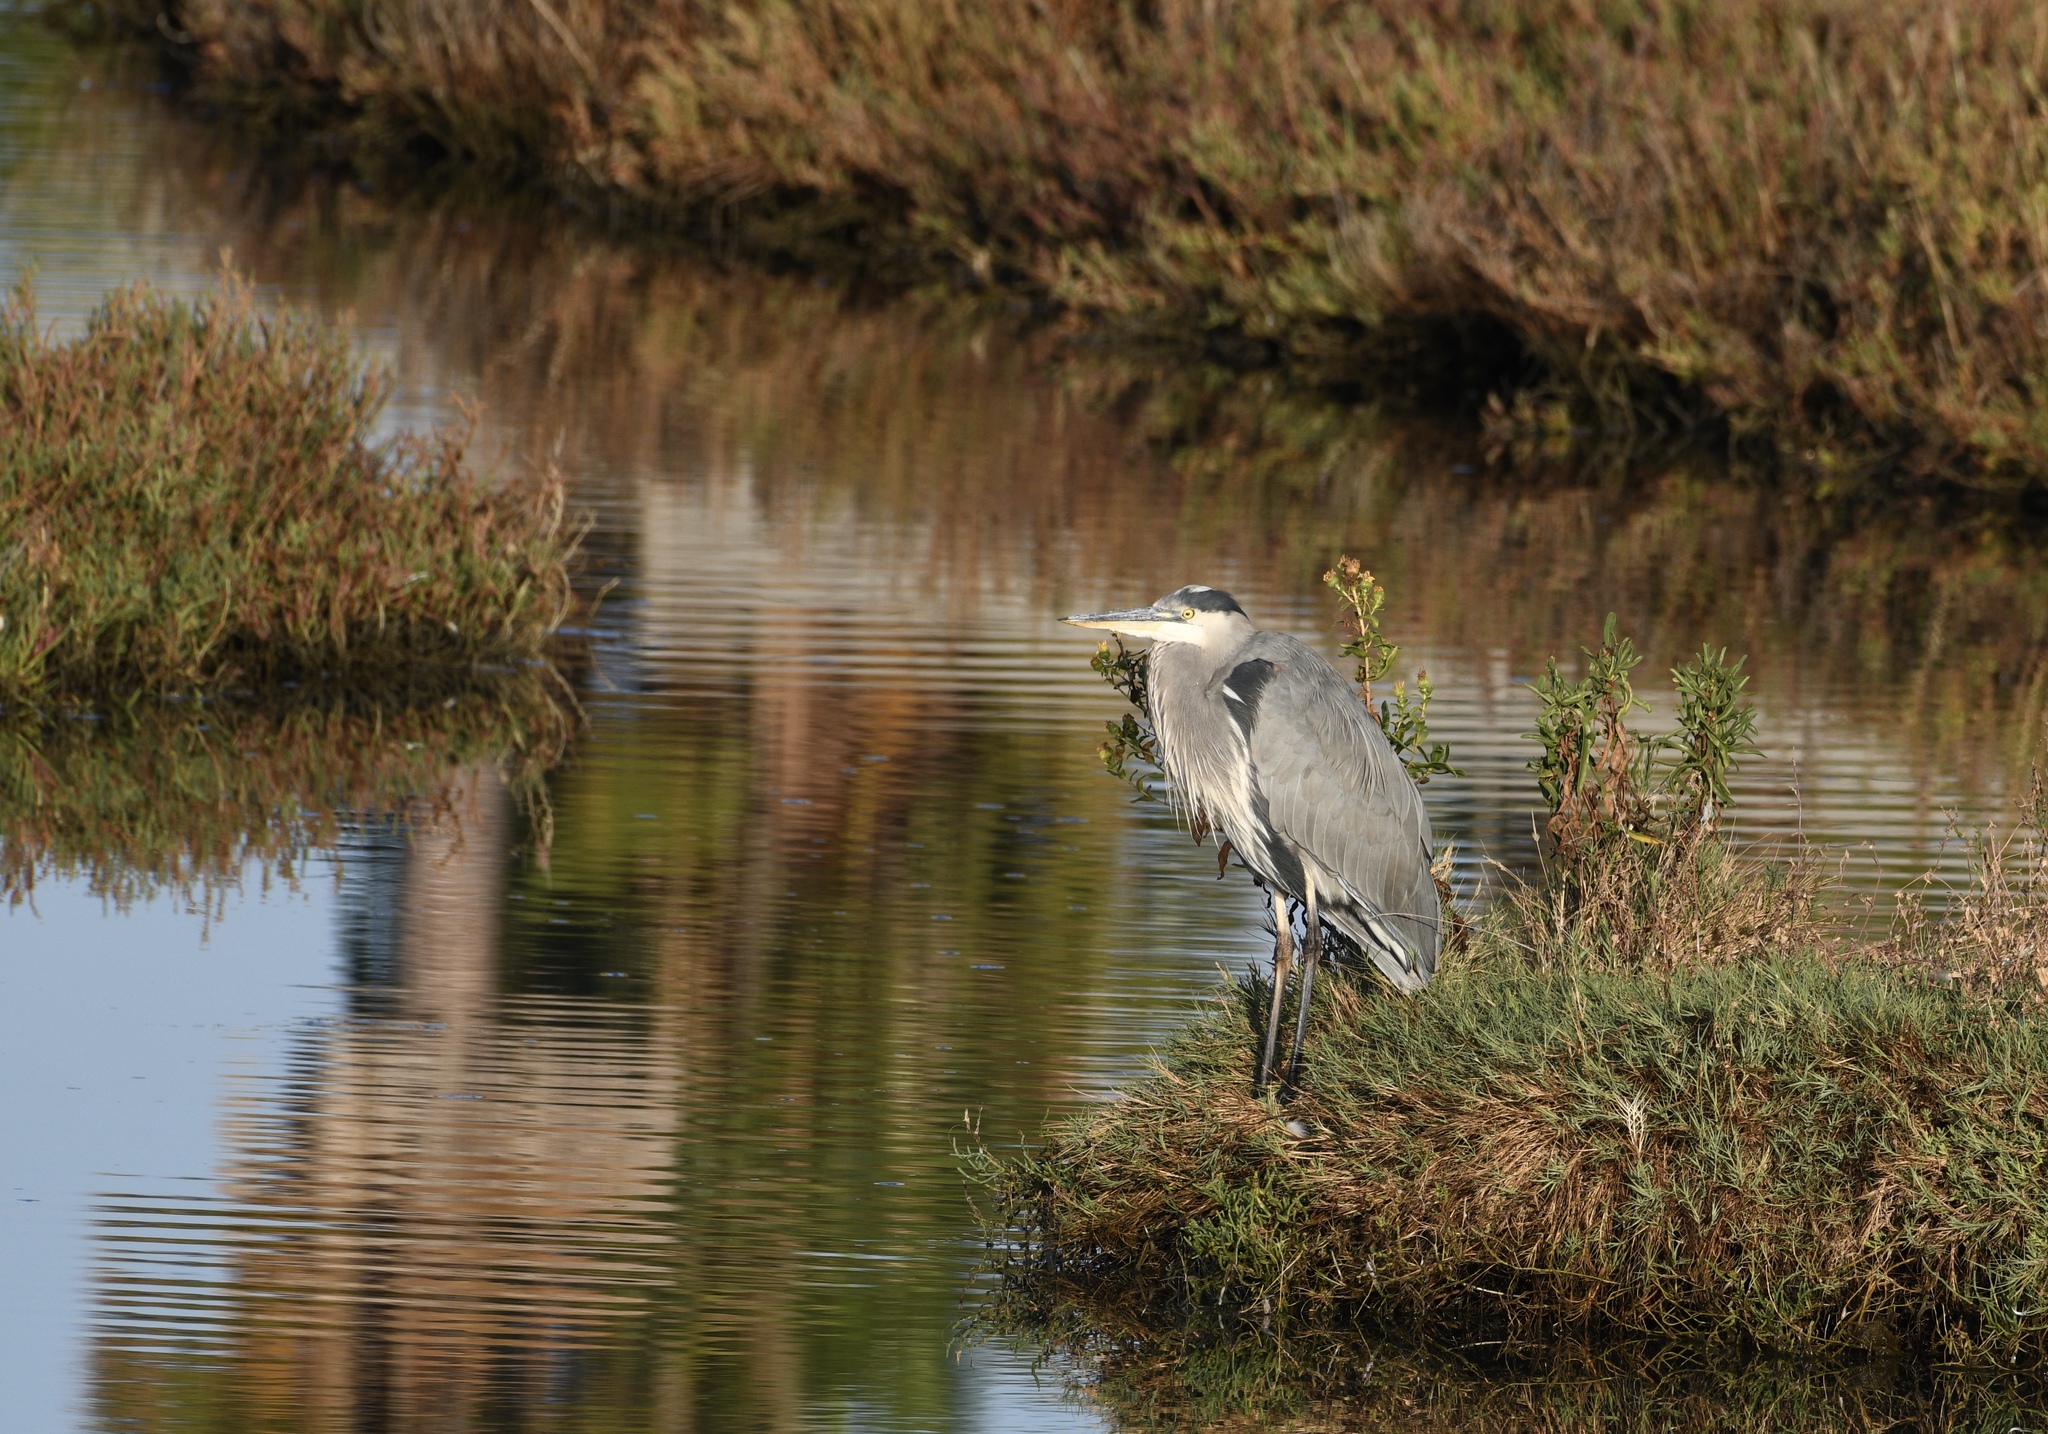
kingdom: Animalia
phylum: Chordata
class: Aves
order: Pelecaniformes
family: Ardeidae
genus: Ardea
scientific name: Ardea herodias
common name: Great blue heron
